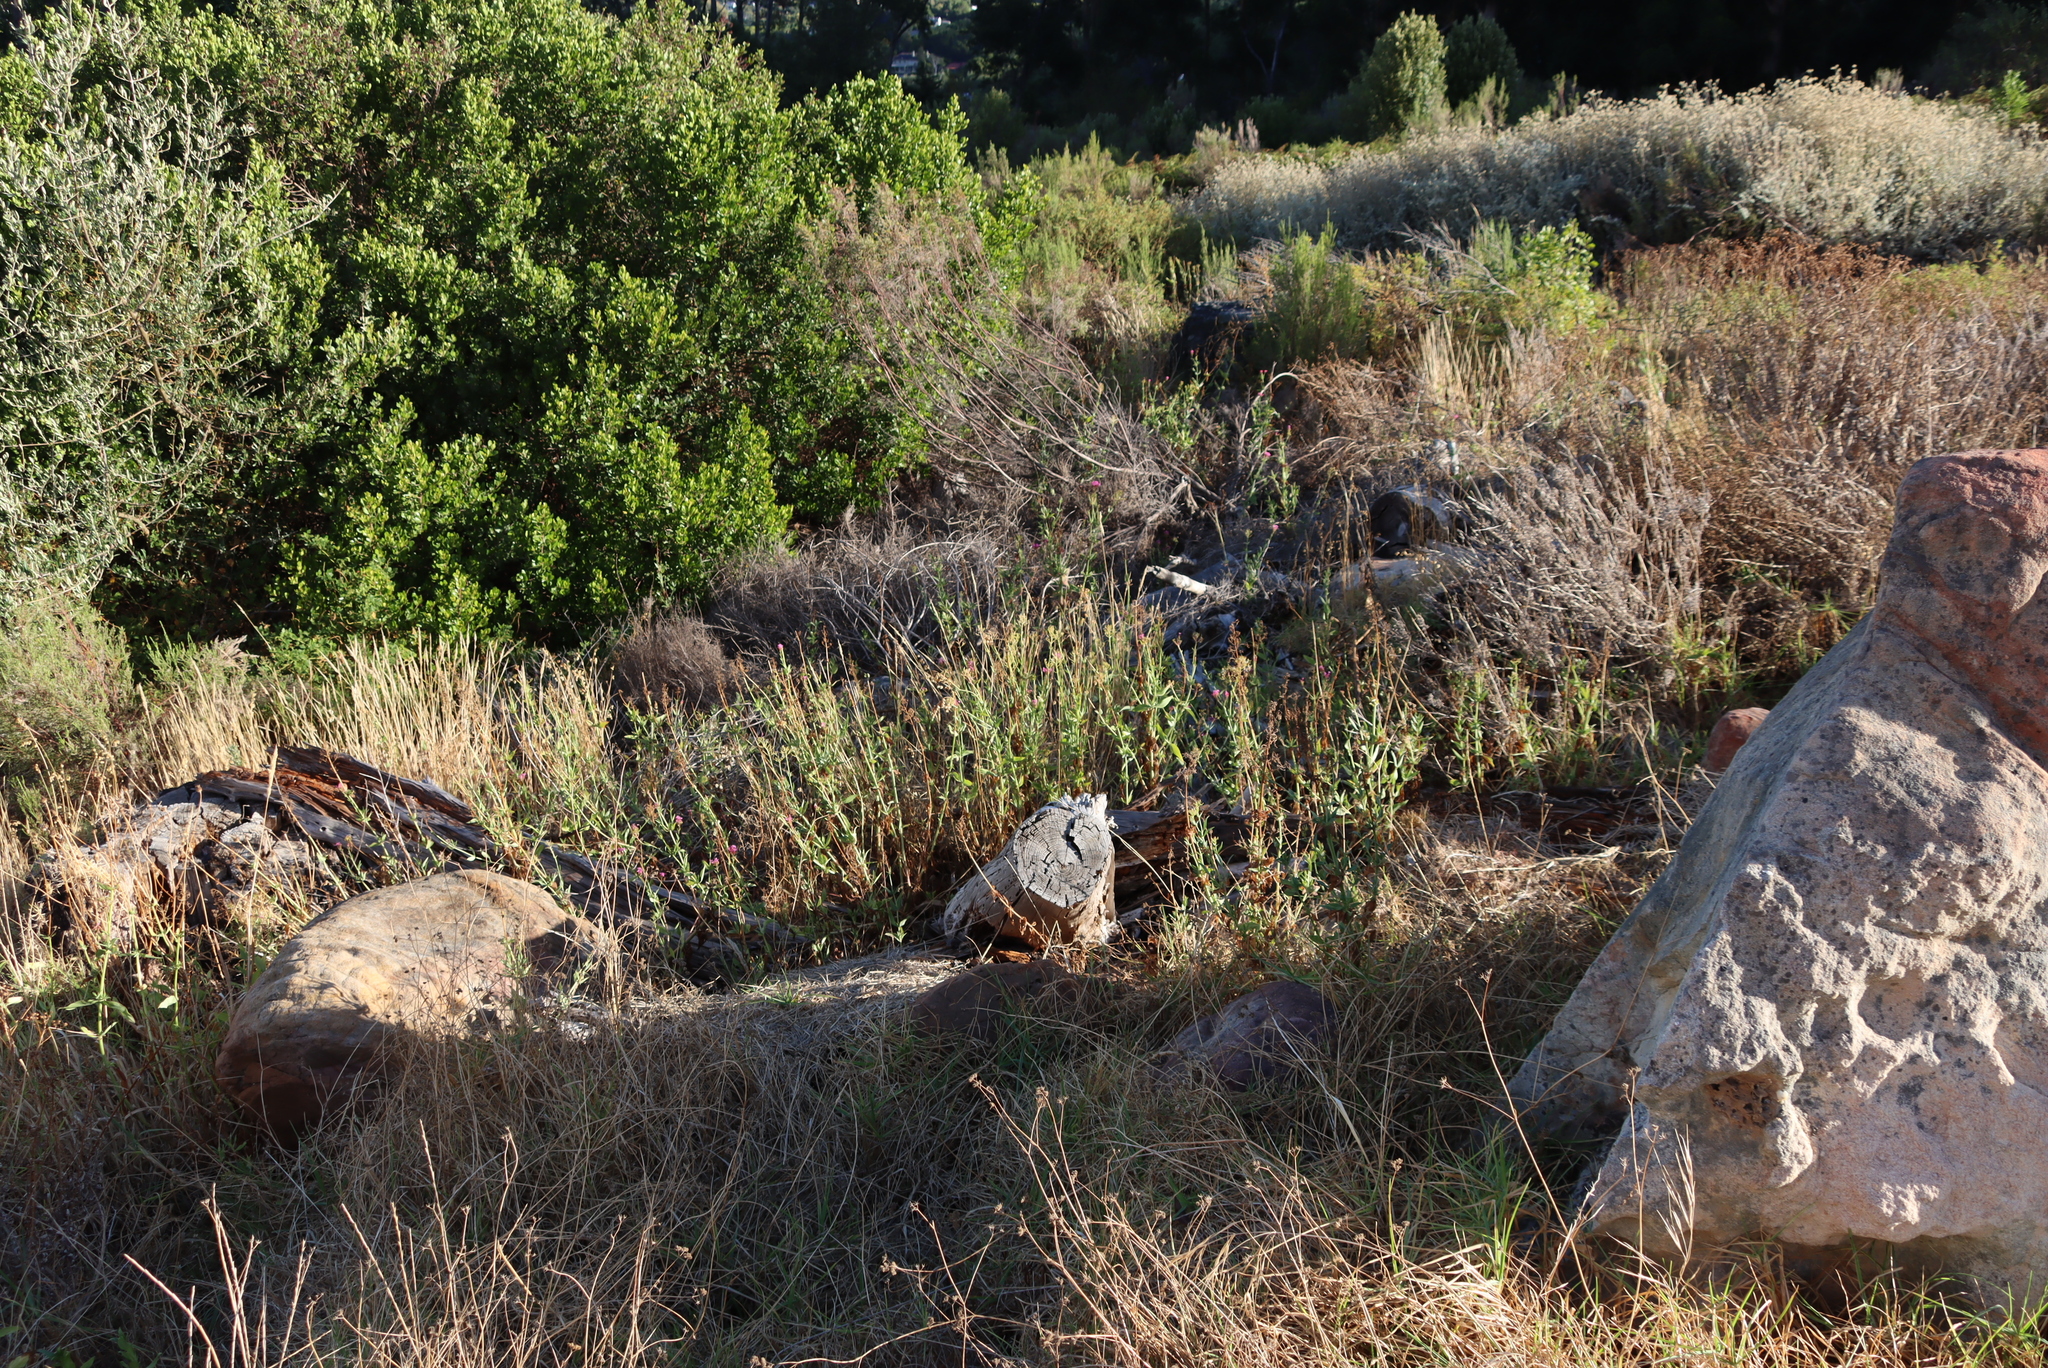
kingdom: Plantae
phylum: Tracheophyta
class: Magnoliopsida
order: Dipsacales
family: Caprifoliaceae
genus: Centranthus
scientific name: Centranthus ruber
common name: Red valerian
